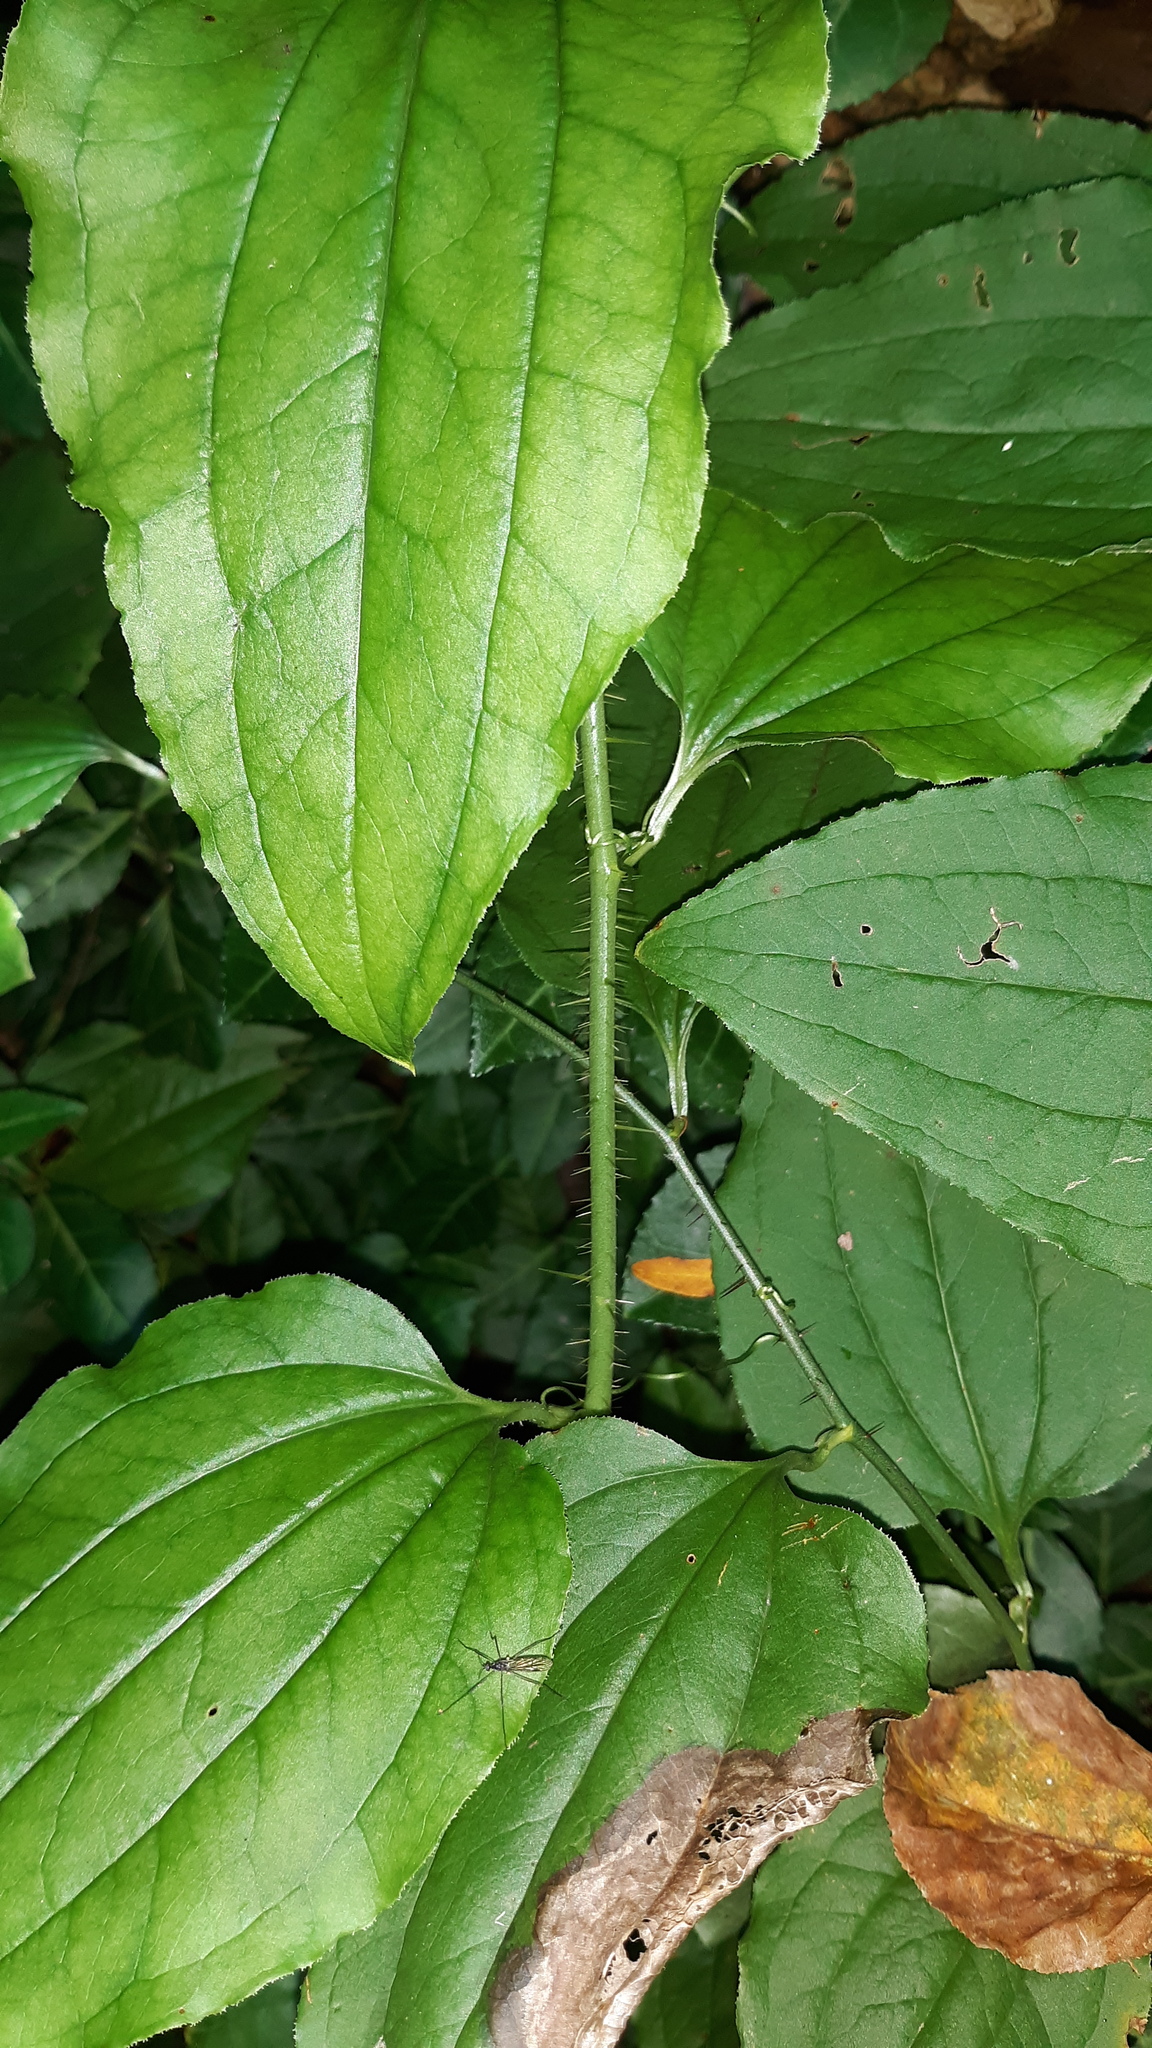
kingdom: Plantae
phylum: Tracheophyta
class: Liliopsida
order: Liliales
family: Smilacaceae
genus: Smilax
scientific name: Smilax tamnoides
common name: Hellfetter
